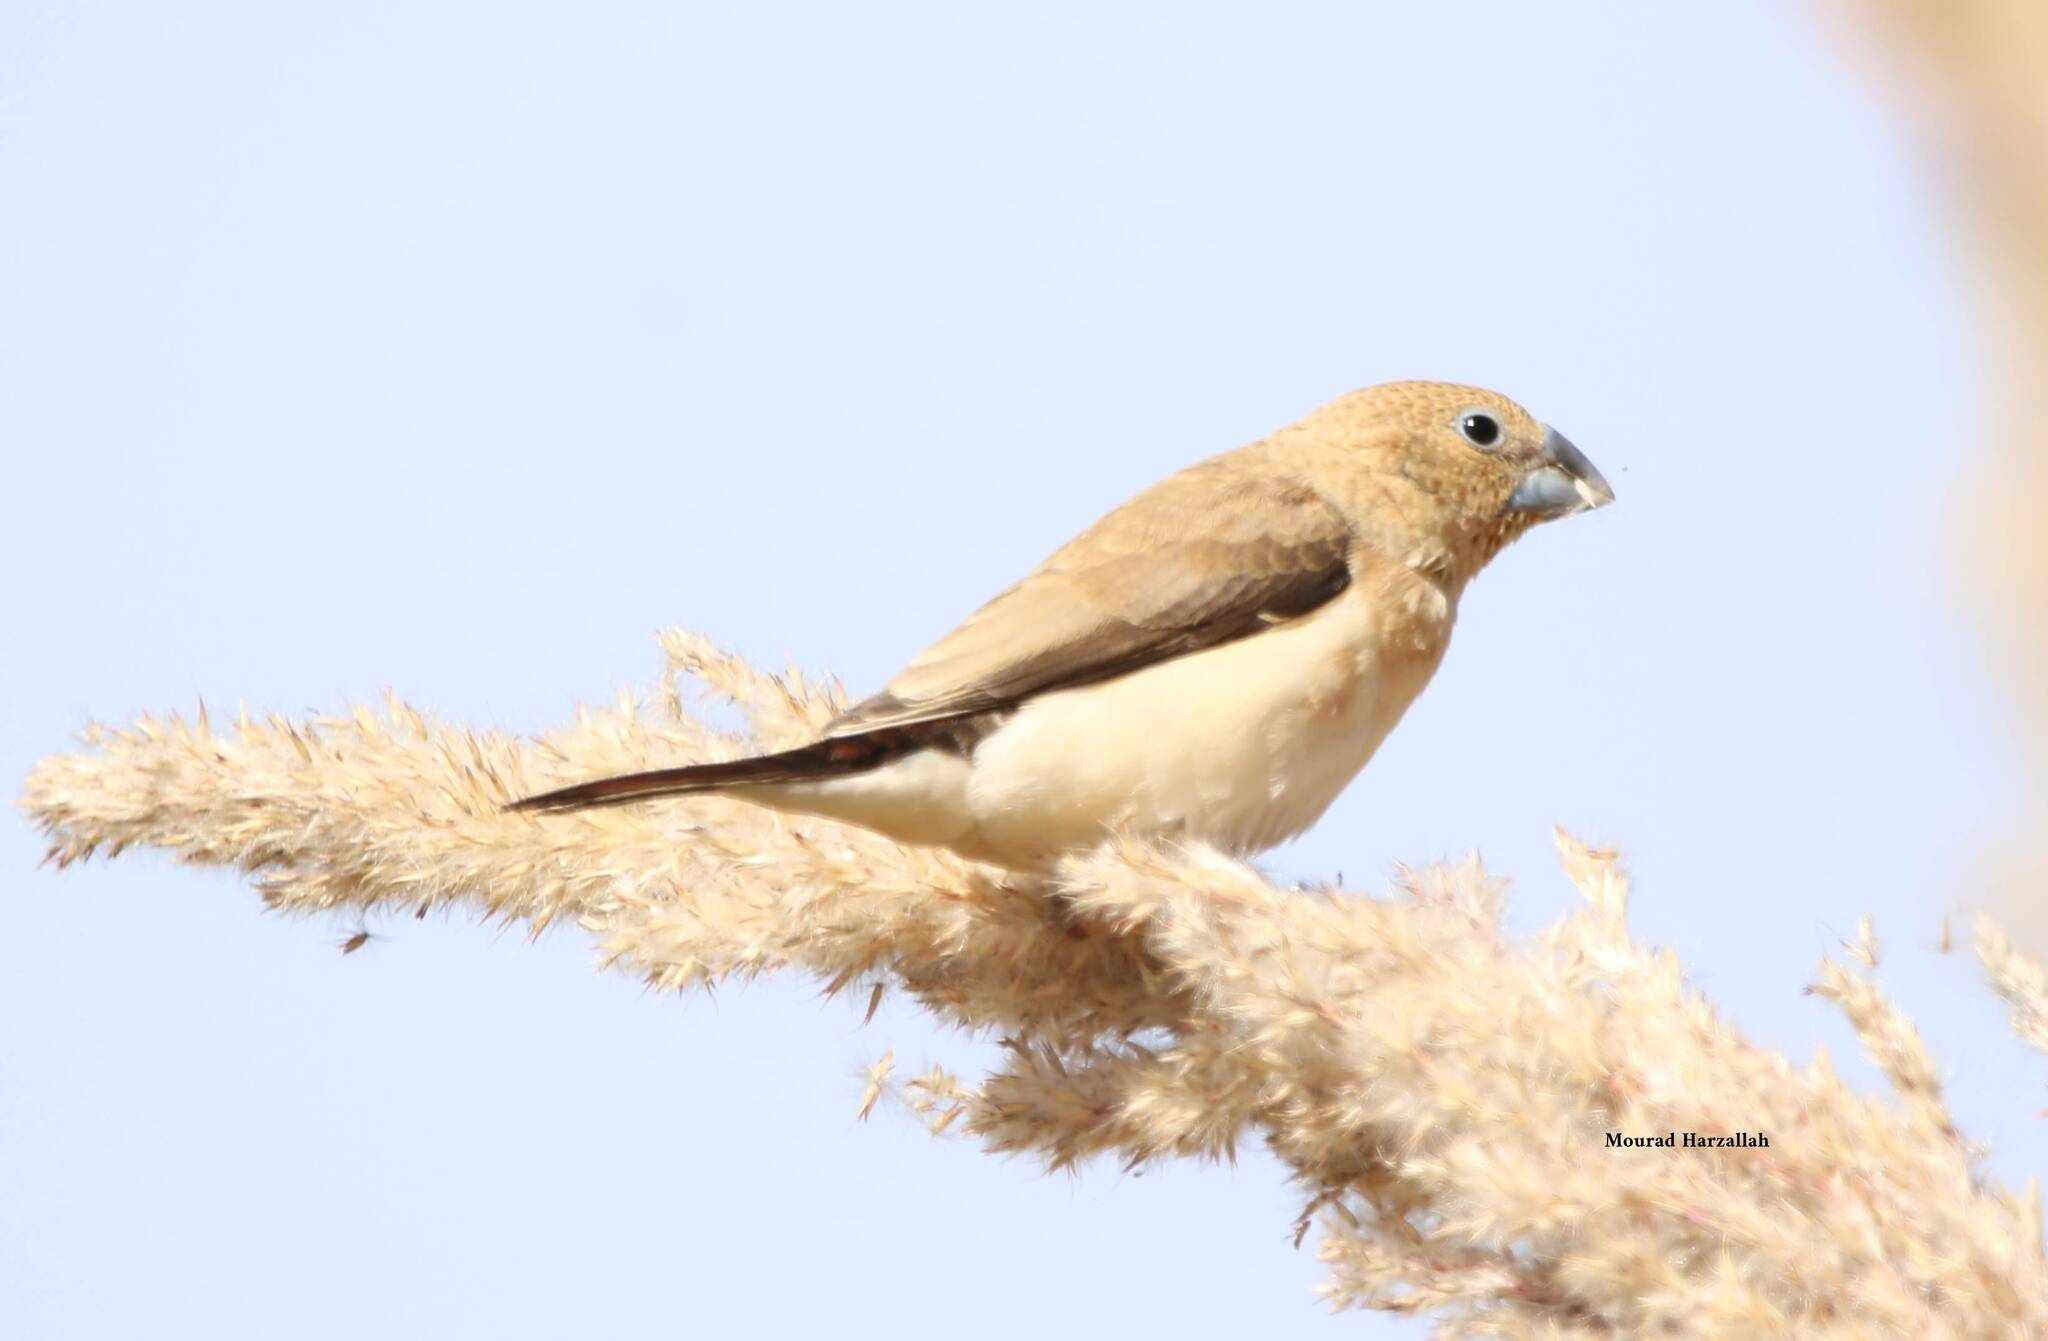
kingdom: Animalia
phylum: Chordata
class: Aves
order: Passeriformes
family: Estrildidae
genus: Euodice
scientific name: Euodice cantans
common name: African silverbill
